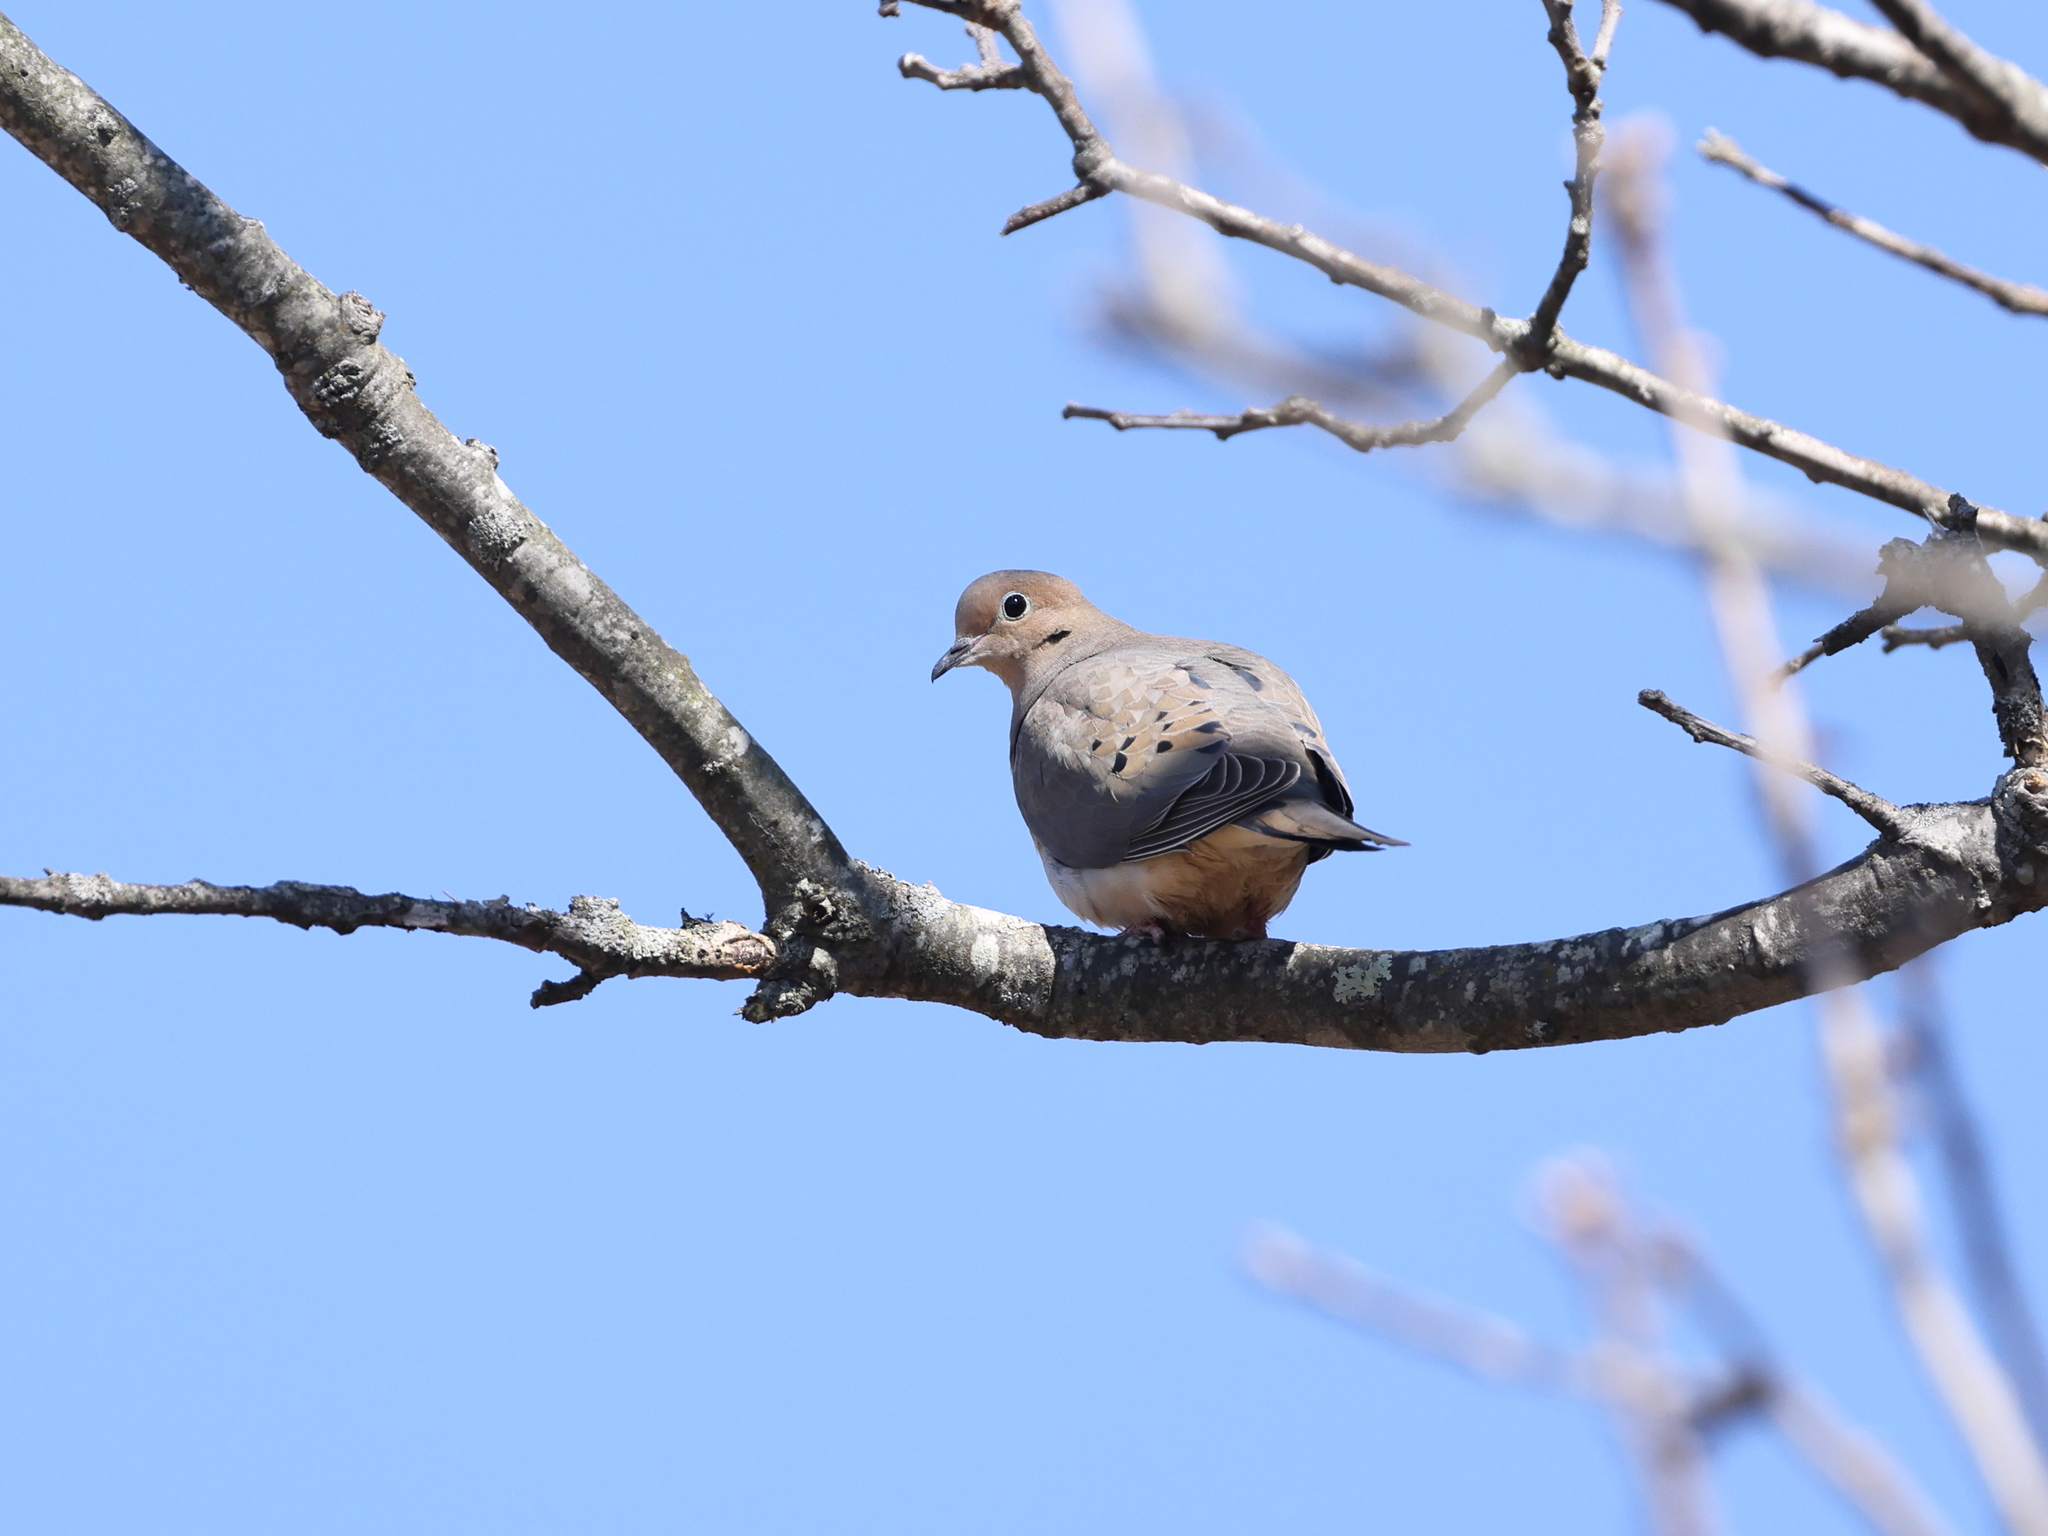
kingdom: Animalia
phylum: Chordata
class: Aves
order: Columbiformes
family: Columbidae
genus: Zenaida
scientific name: Zenaida macroura
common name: Mourning dove
